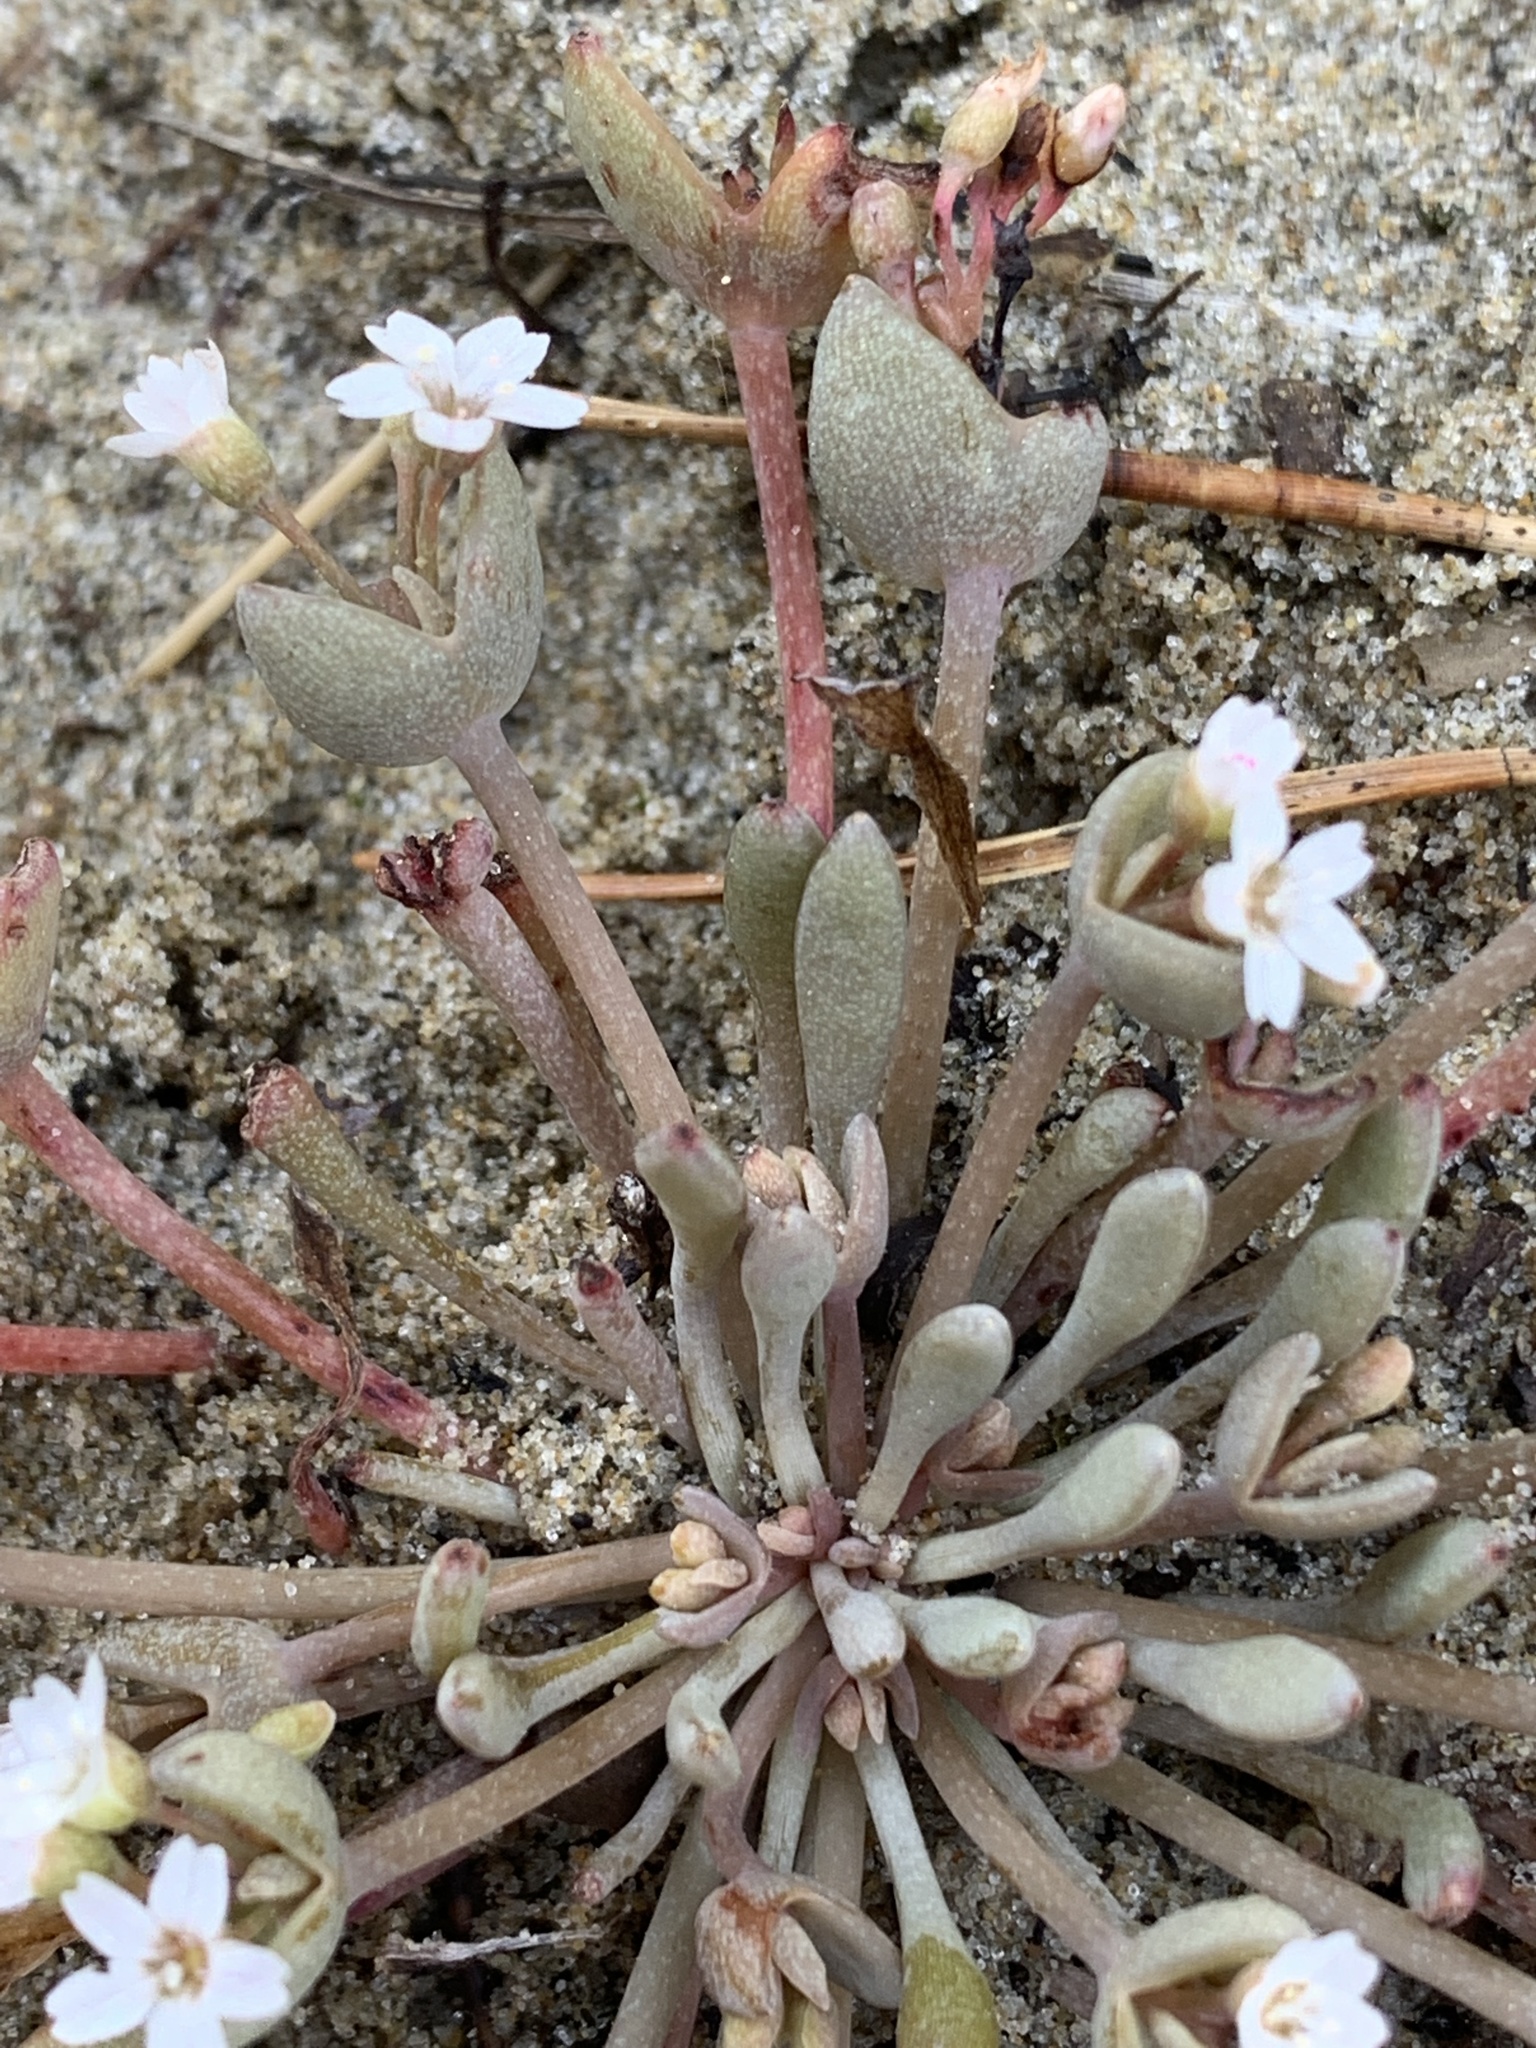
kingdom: Plantae
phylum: Tracheophyta
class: Magnoliopsida
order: Caryophyllales
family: Montiaceae
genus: Claytonia
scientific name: Claytonia exigua
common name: Pale spring beauty
